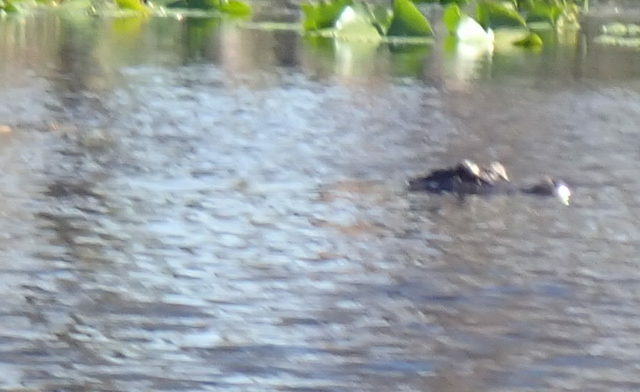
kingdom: Animalia
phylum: Chordata
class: Crocodylia
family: Alligatoridae
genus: Alligator
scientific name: Alligator mississippiensis
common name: American alligator
